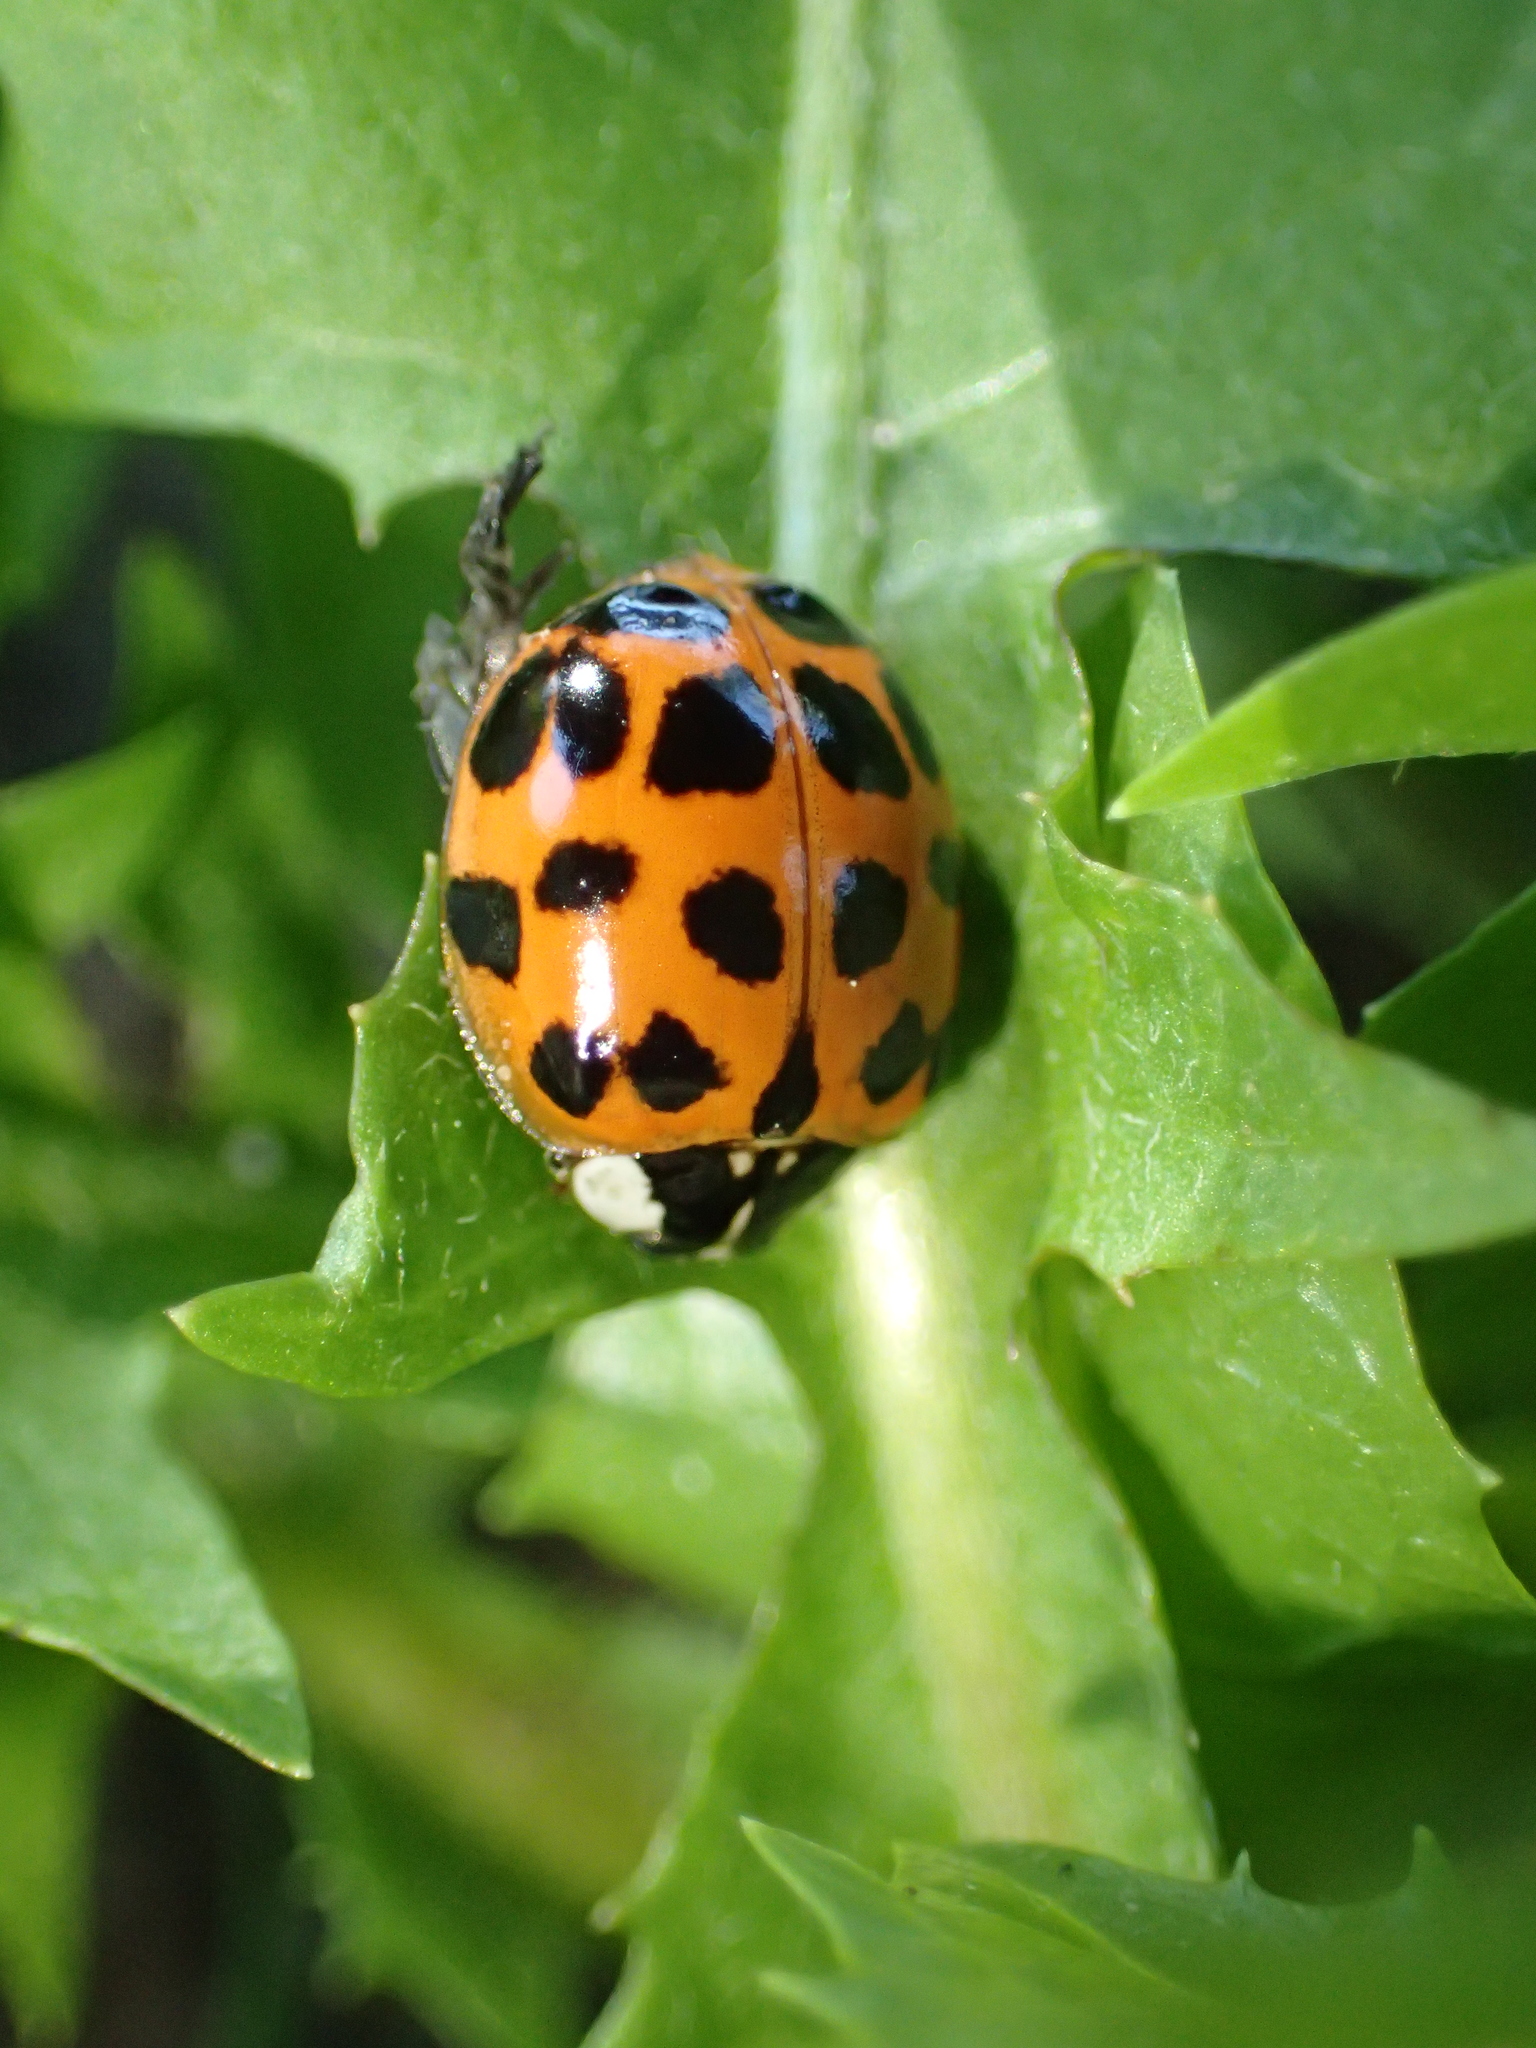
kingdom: Animalia
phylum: Arthropoda
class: Insecta
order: Coleoptera
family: Coccinellidae
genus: Harmonia
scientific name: Harmonia axyridis
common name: Harlequin ladybird
